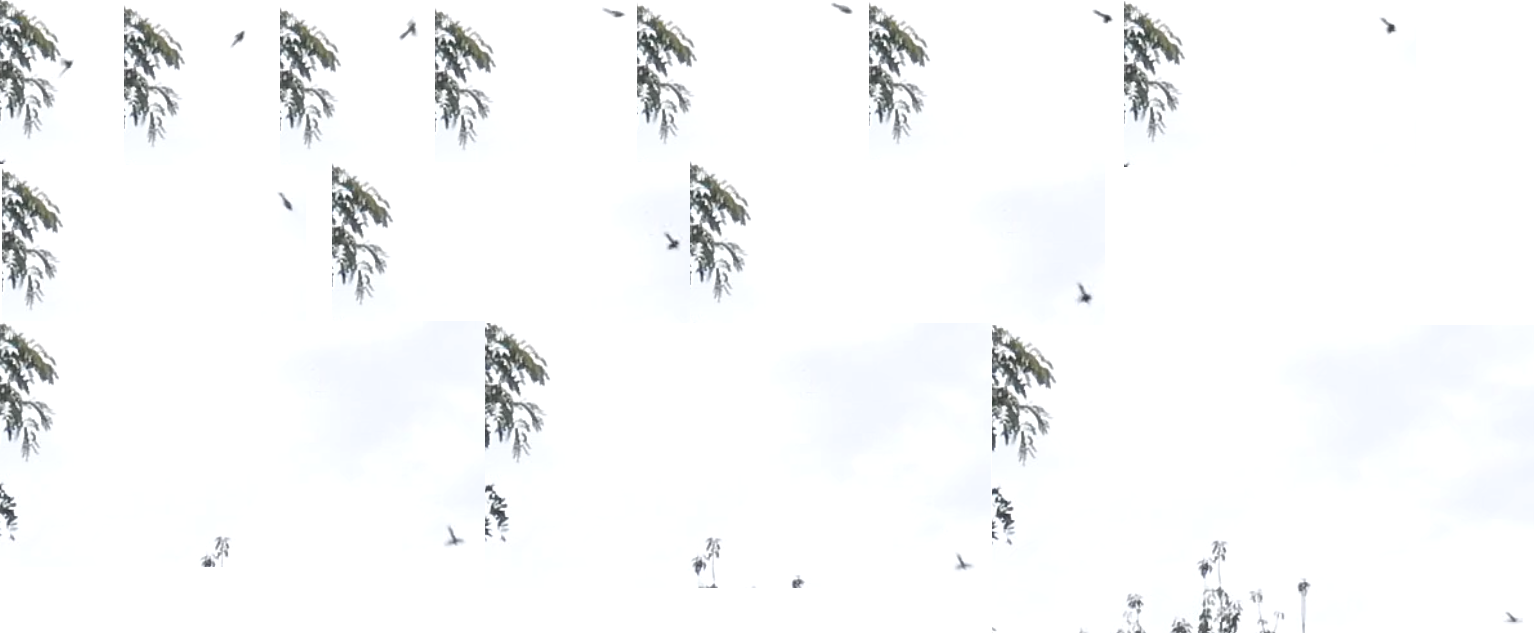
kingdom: Animalia
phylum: Chordata
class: Aves
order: Passeriformes
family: Rhipiduridae
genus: Rhipidura
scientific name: Rhipidura fuliginosa
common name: New zealand fantail
